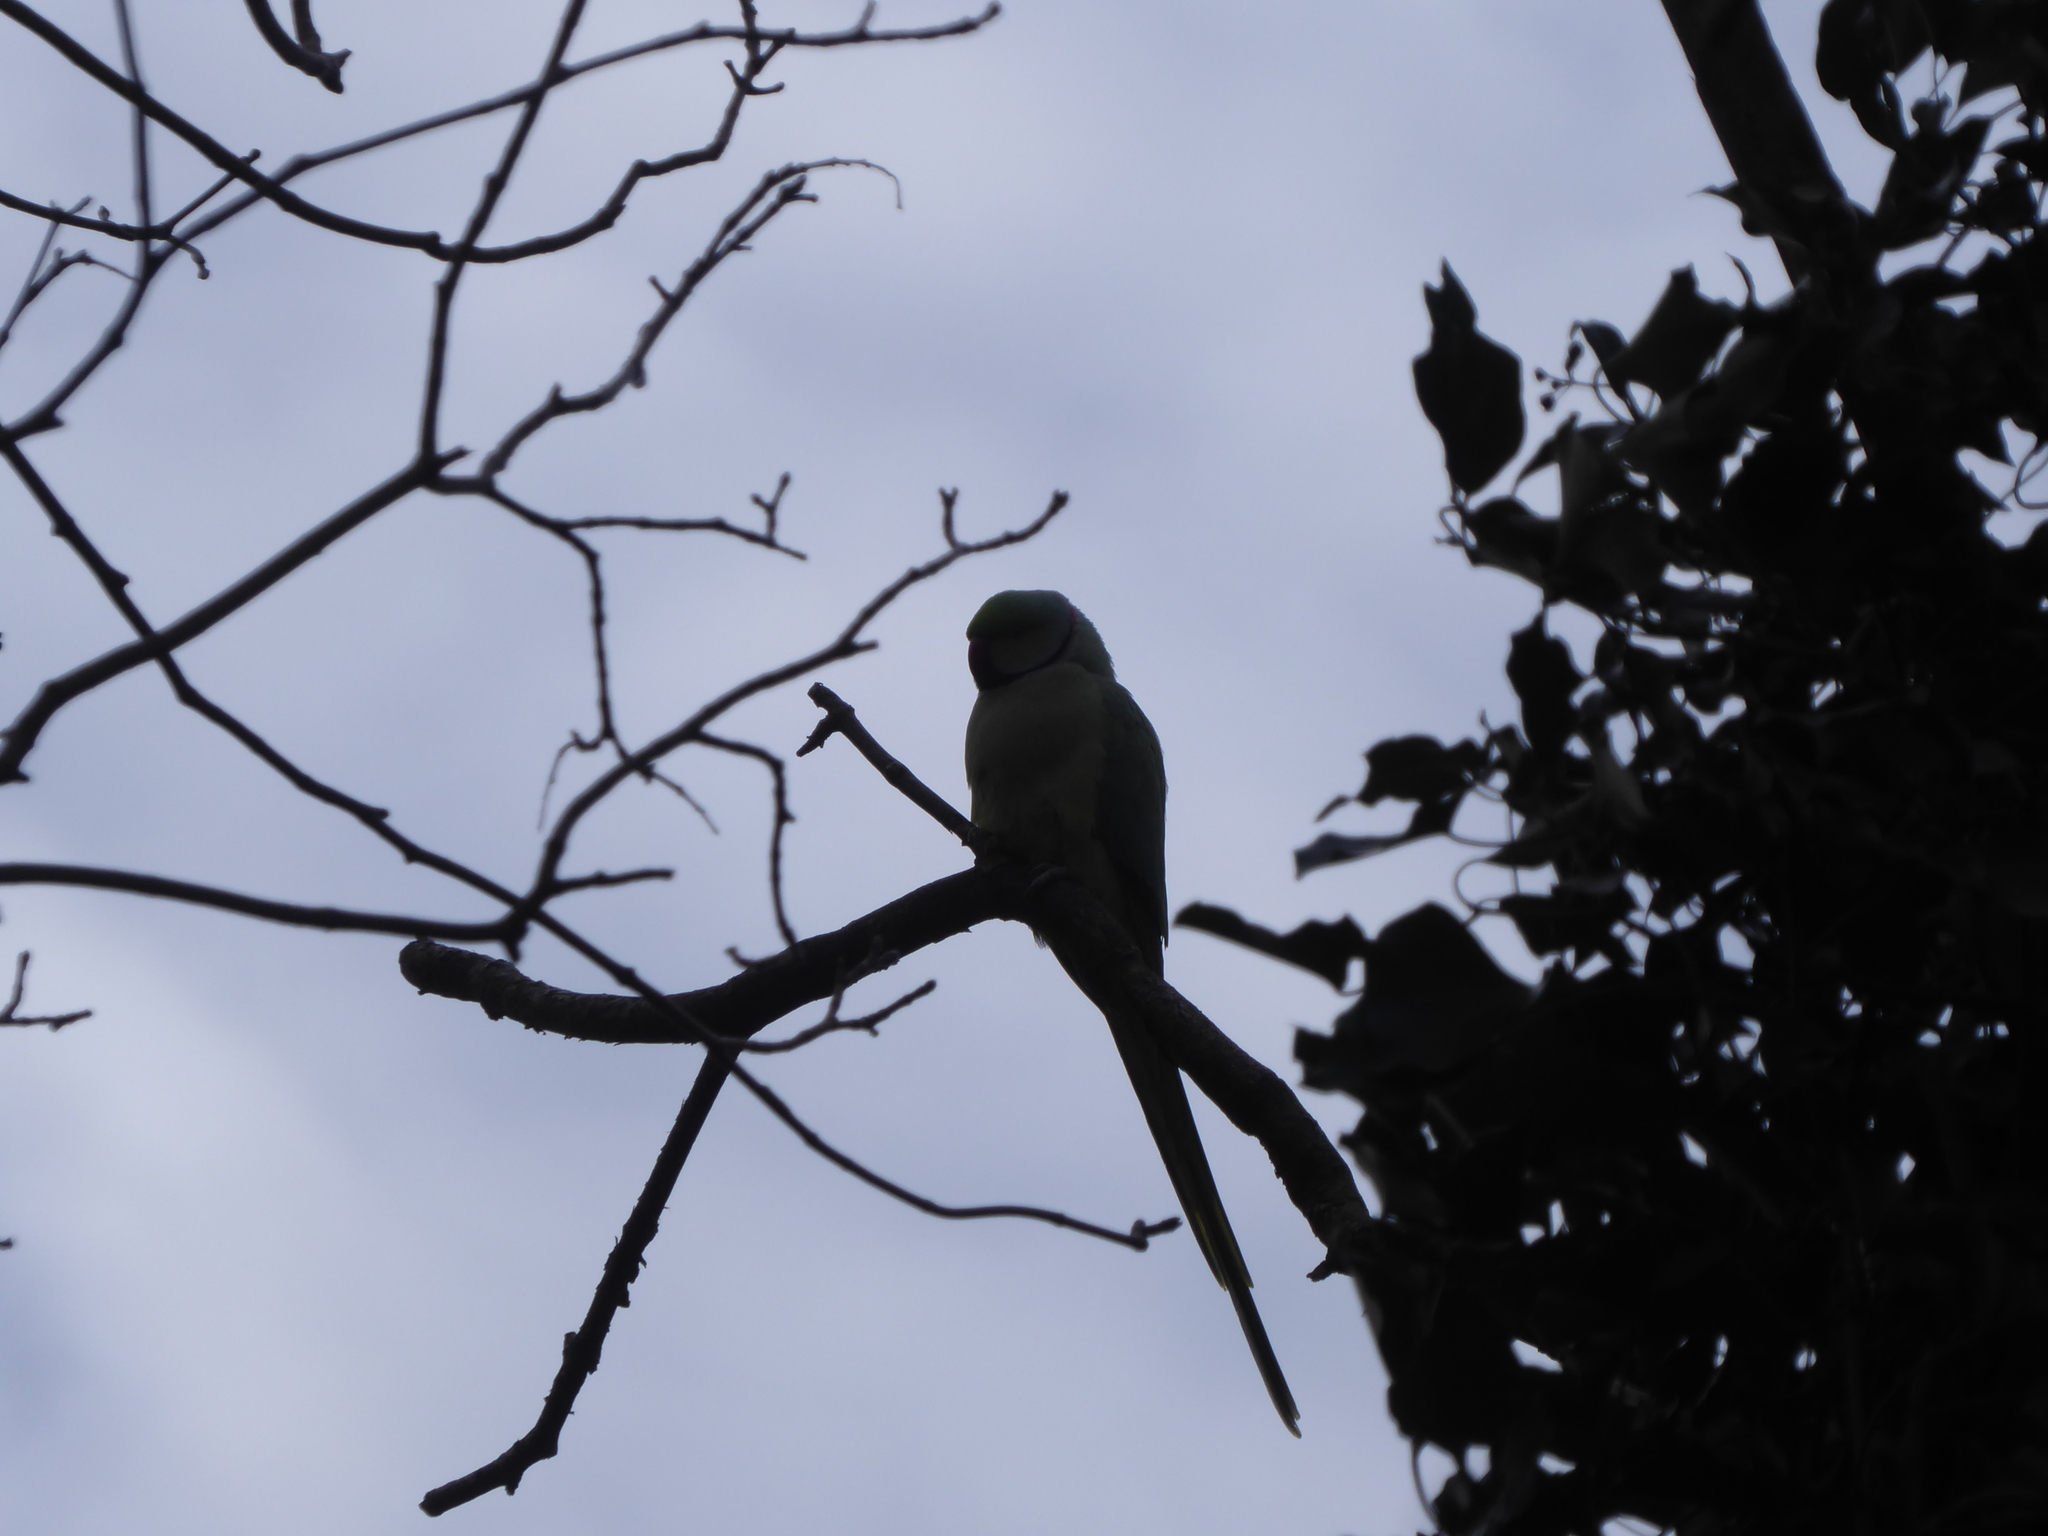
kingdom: Animalia
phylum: Chordata
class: Aves
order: Psittaciformes
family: Psittacidae
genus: Psittacula
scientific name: Psittacula krameri
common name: Rose-ringed parakeet
